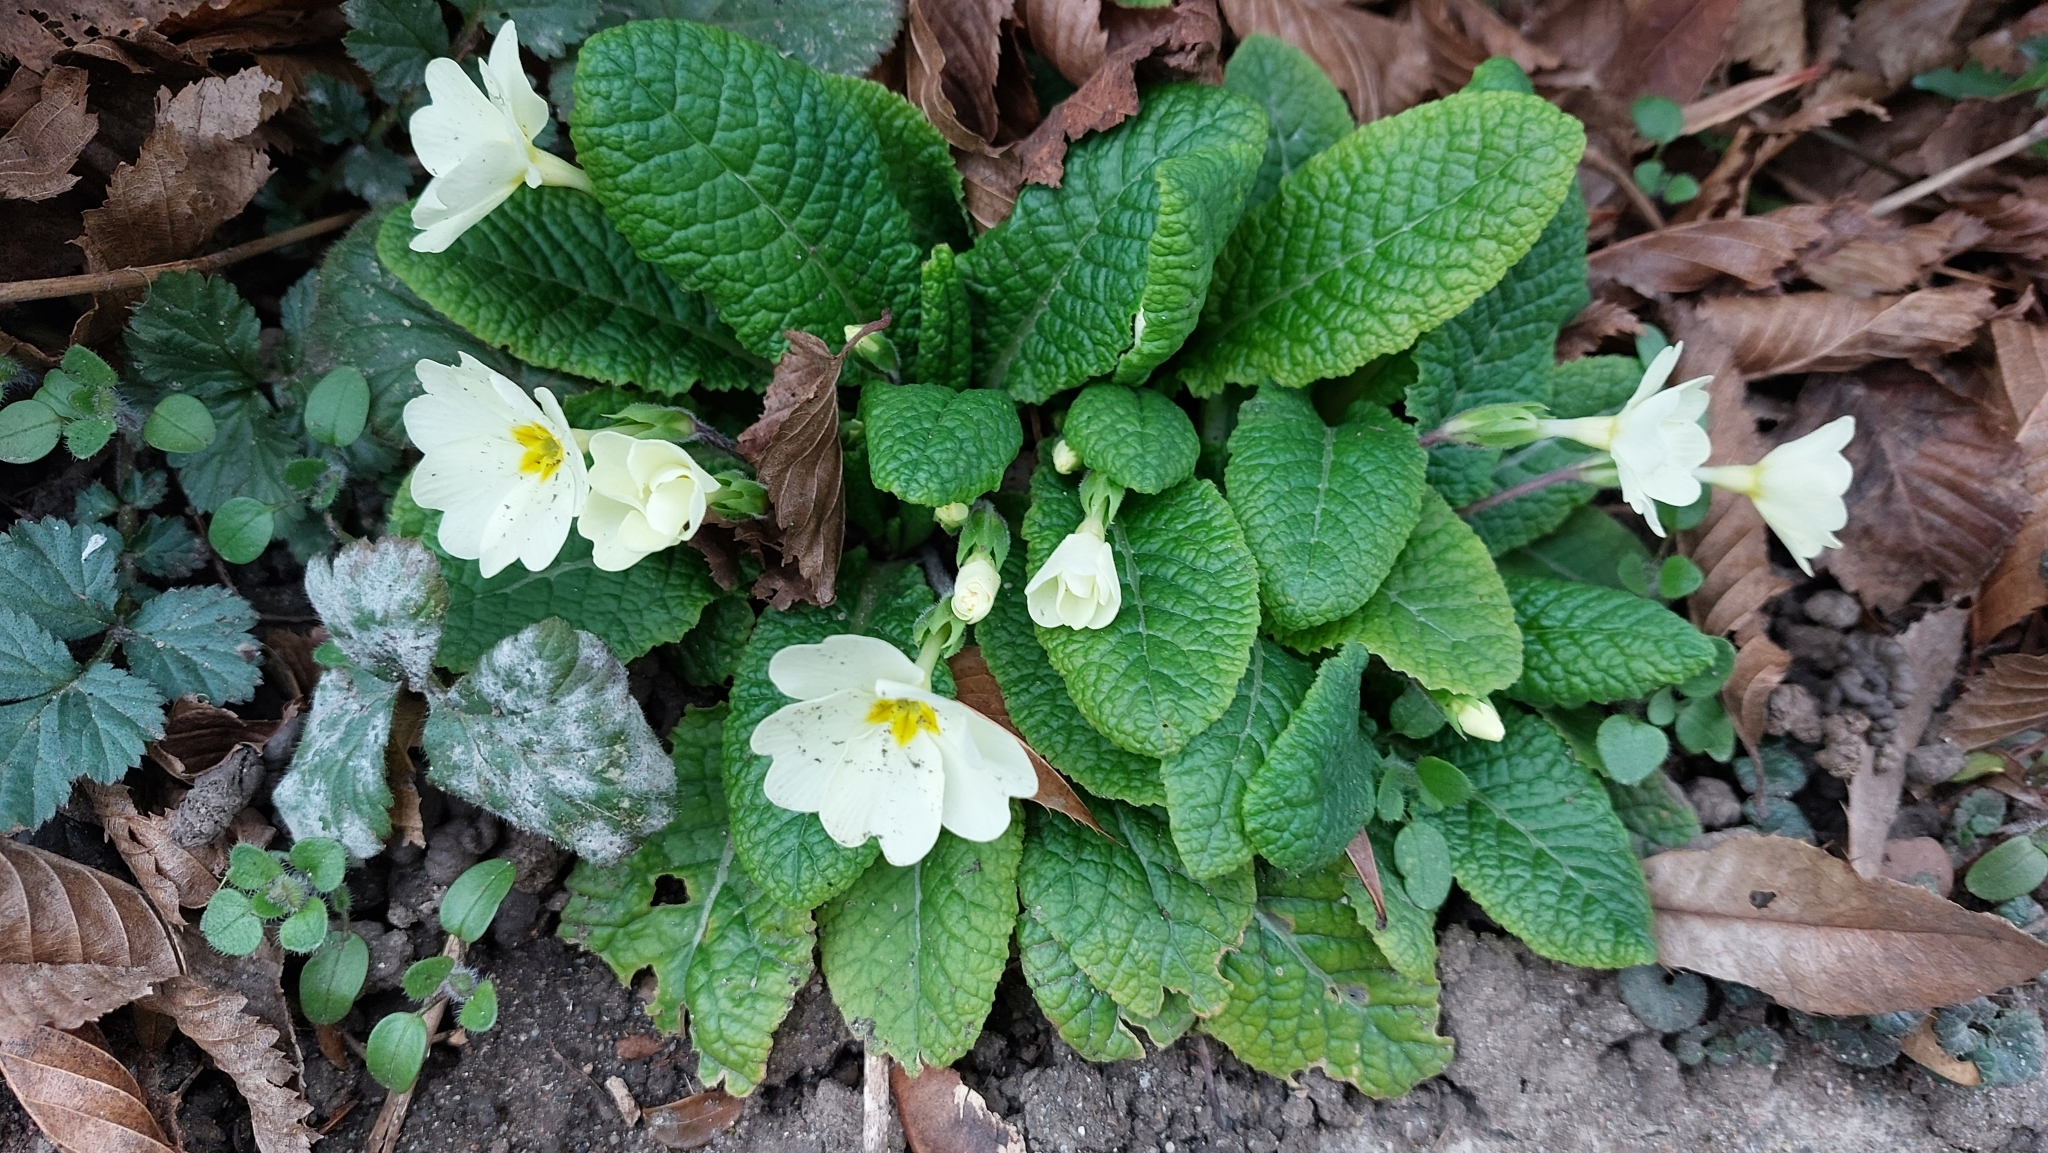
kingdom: Plantae
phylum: Tracheophyta
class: Magnoliopsida
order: Ericales
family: Primulaceae
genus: Primula
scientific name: Primula vulgaris
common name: Primrose
